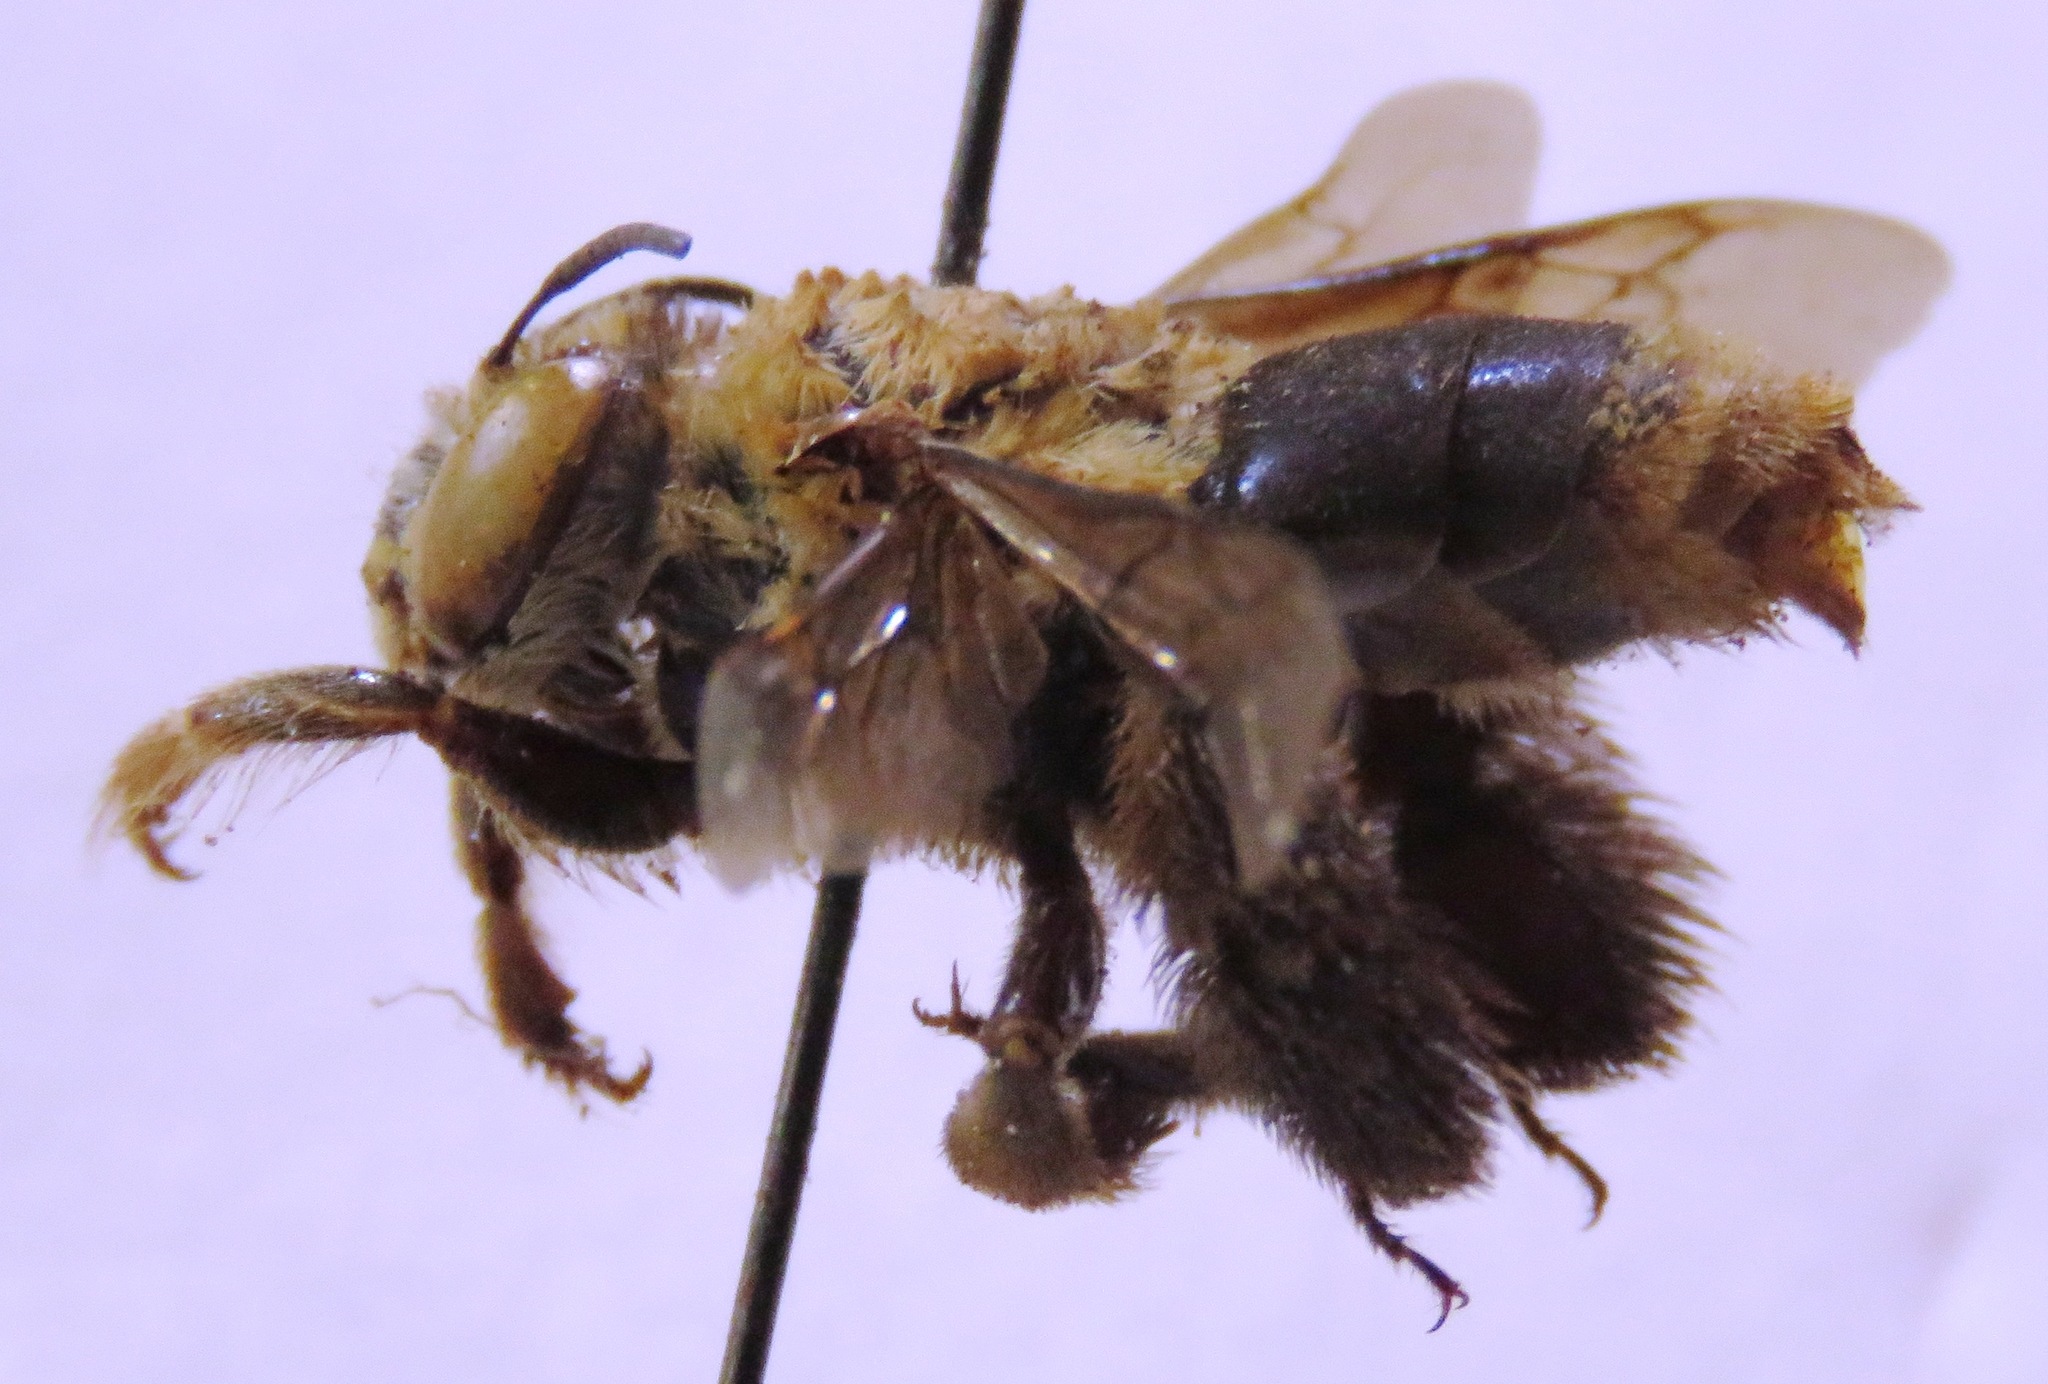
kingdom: Animalia
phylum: Arthropoda
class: Insecta
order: Hymenoptera
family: Apidae
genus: Centris
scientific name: Centris varia
